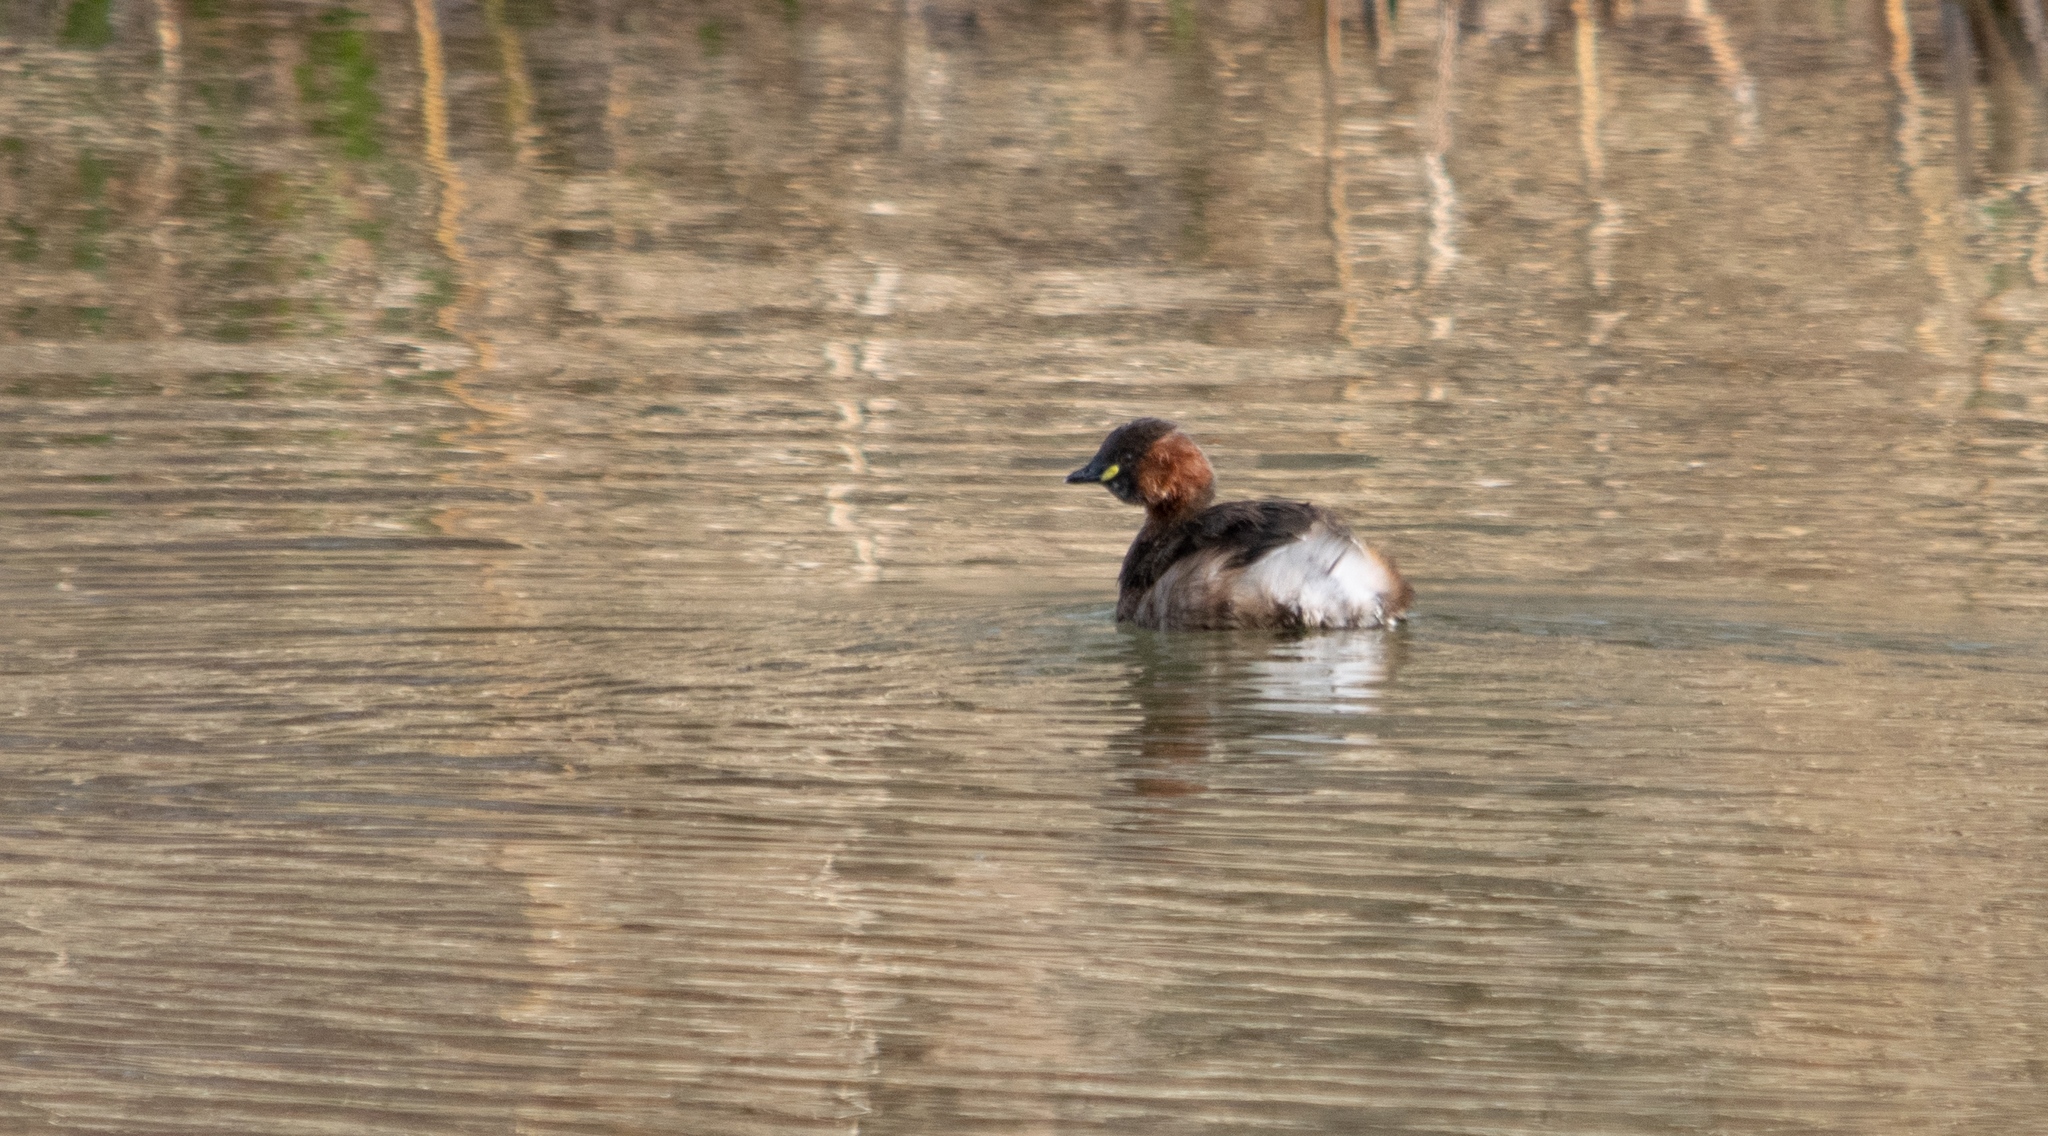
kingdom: Animalia
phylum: Chordata
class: Aves
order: Podicipediformes
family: Podicipedidae
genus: Tachybaptus
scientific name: Tachybaptus ruficollis
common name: Little grebe
